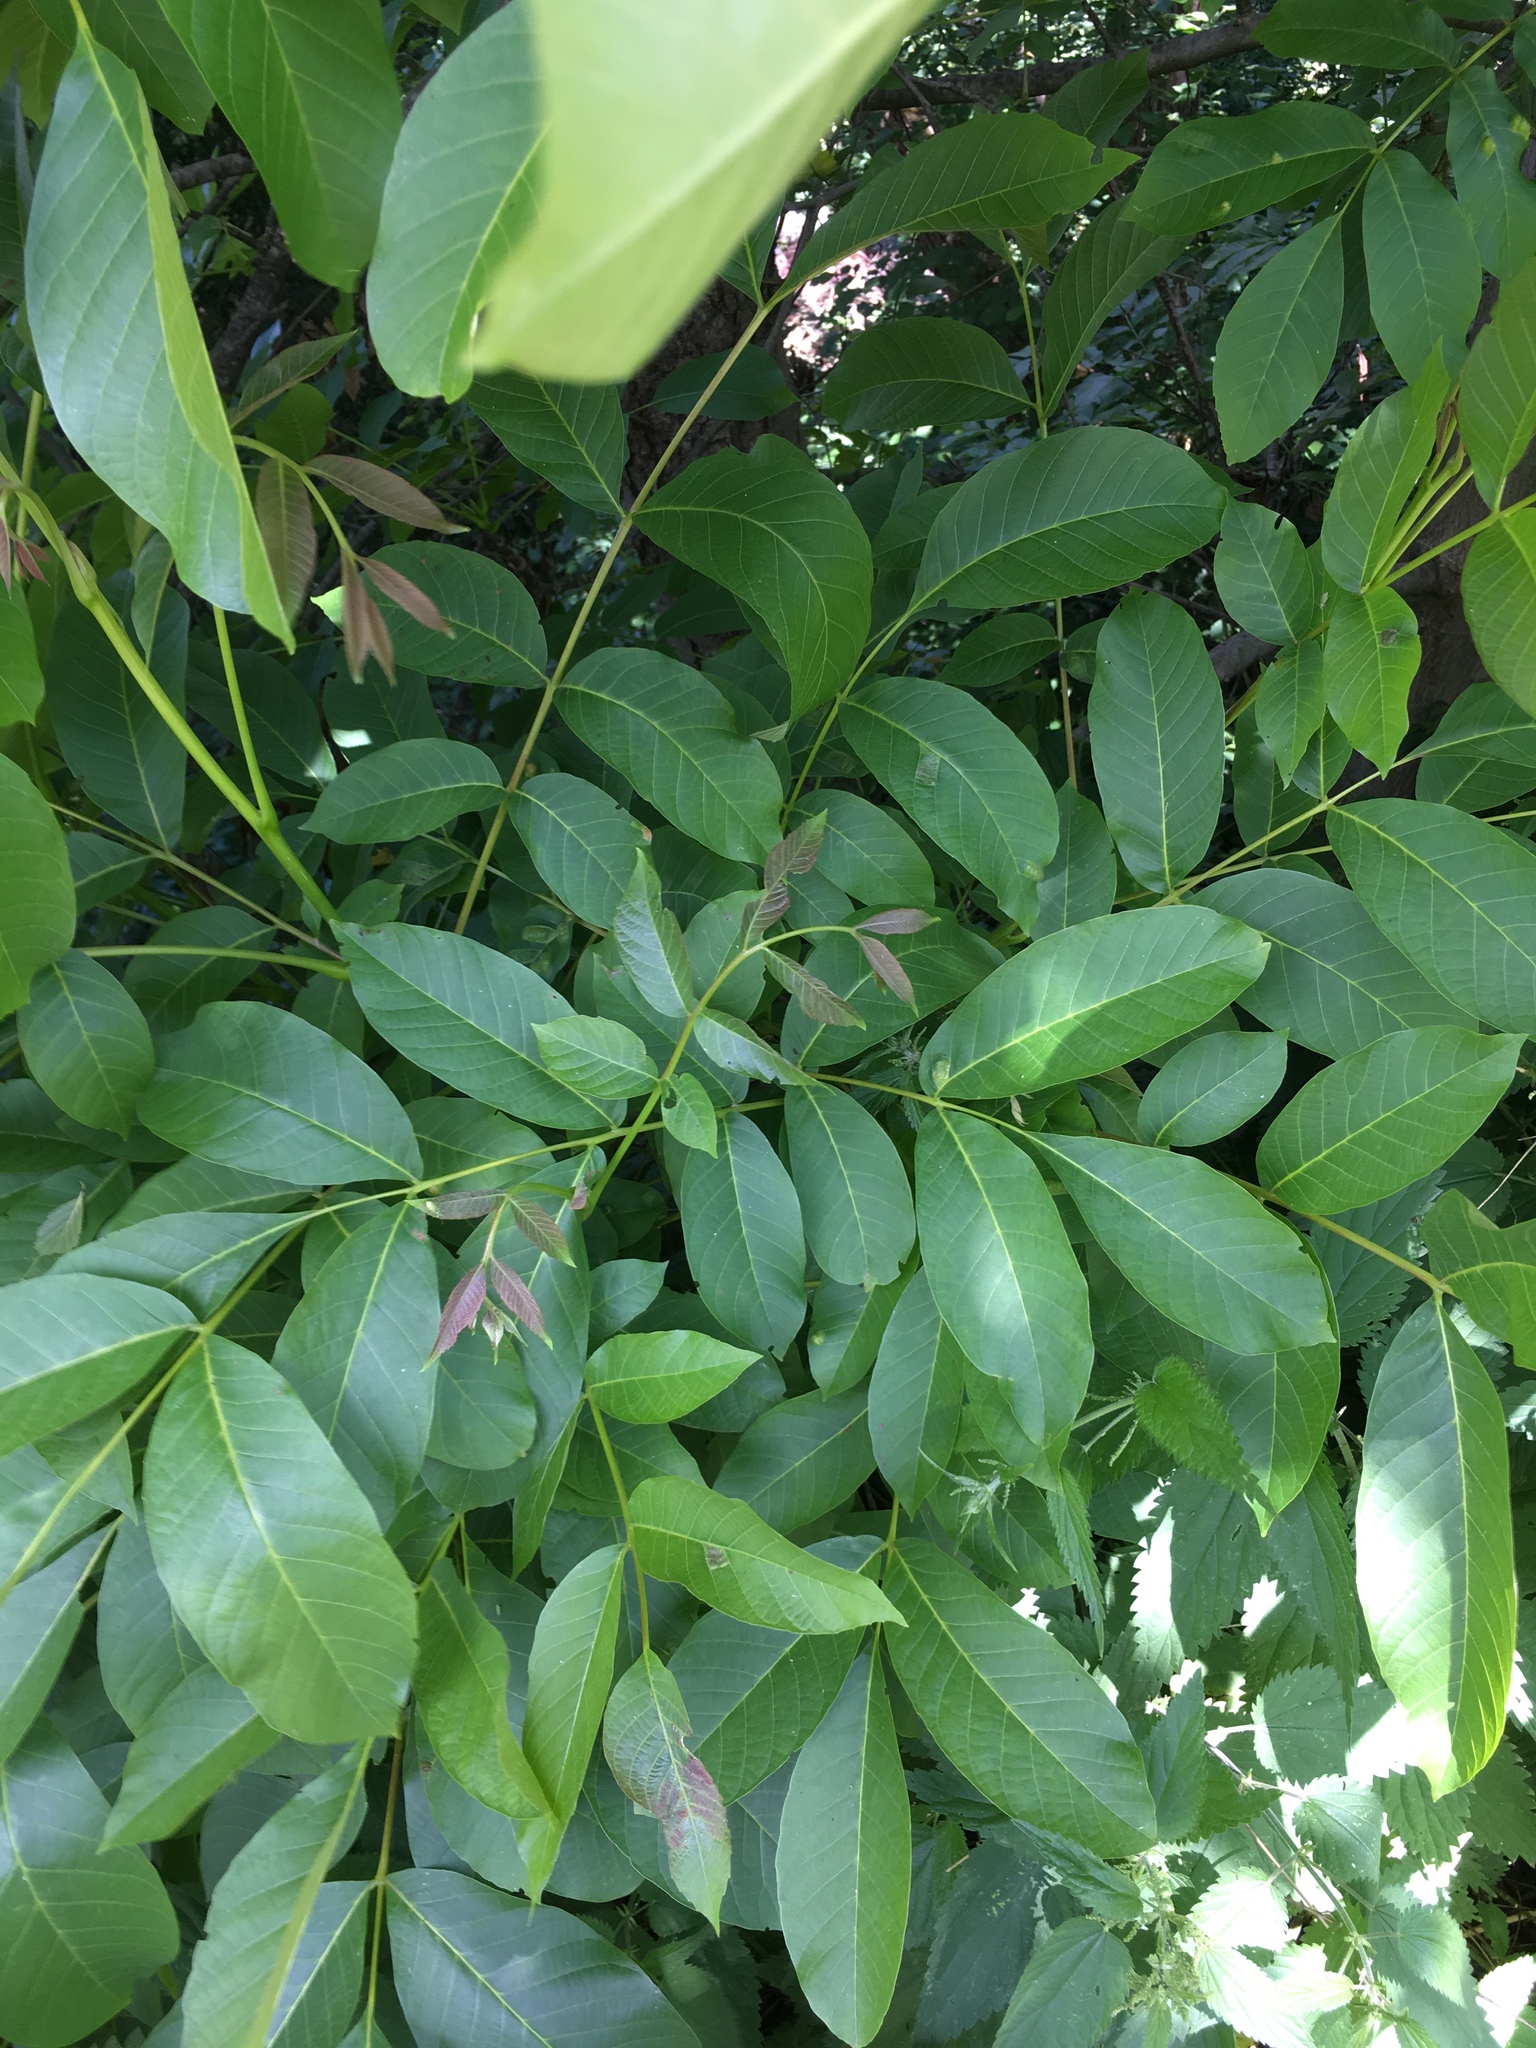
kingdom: Plantae
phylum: Tracheophyta
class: Magnoliopsida
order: Fagales
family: Juglandaceae
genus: Juglans
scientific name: Juglans regia
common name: Walnut
